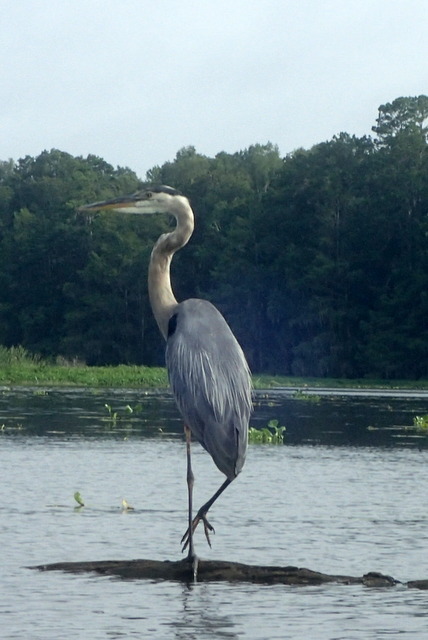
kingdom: Animalia
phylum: Chordata
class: Aves
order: Pelecaniformes
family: Ardeidae
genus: Ardea
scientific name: Ardea herodias
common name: Great blue heron
